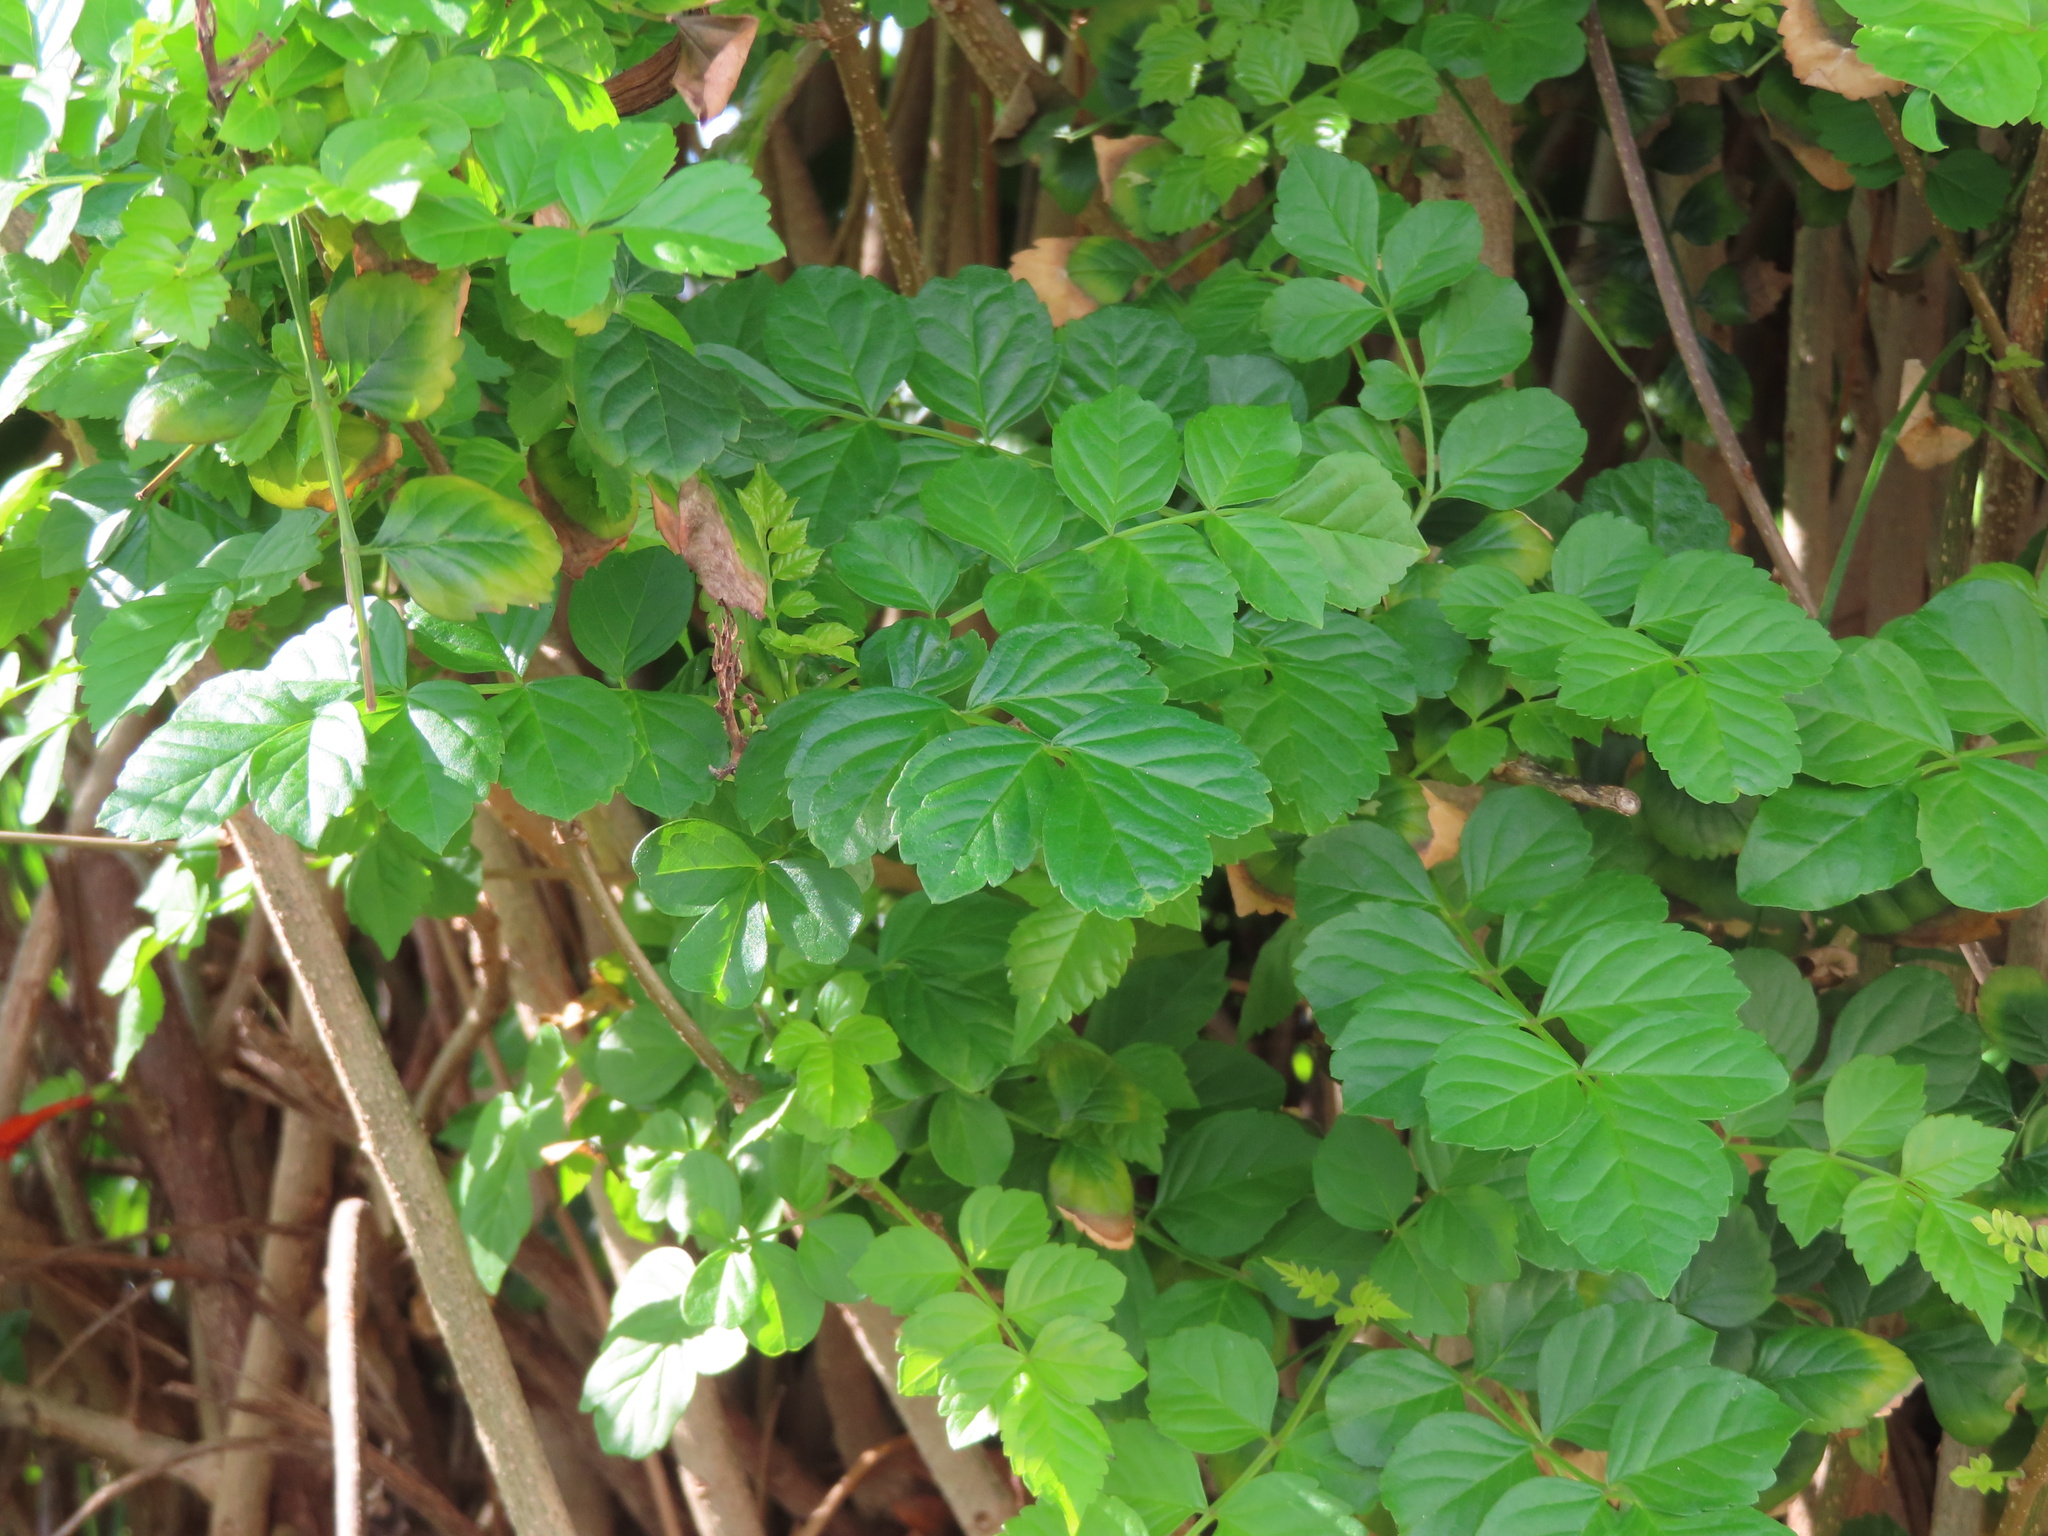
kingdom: Plantae
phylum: Tracheophyta
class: Magnoliopsida
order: Lamiales
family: Bignoniaceae
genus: Tecomaria
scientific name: Tecomaria capensis
